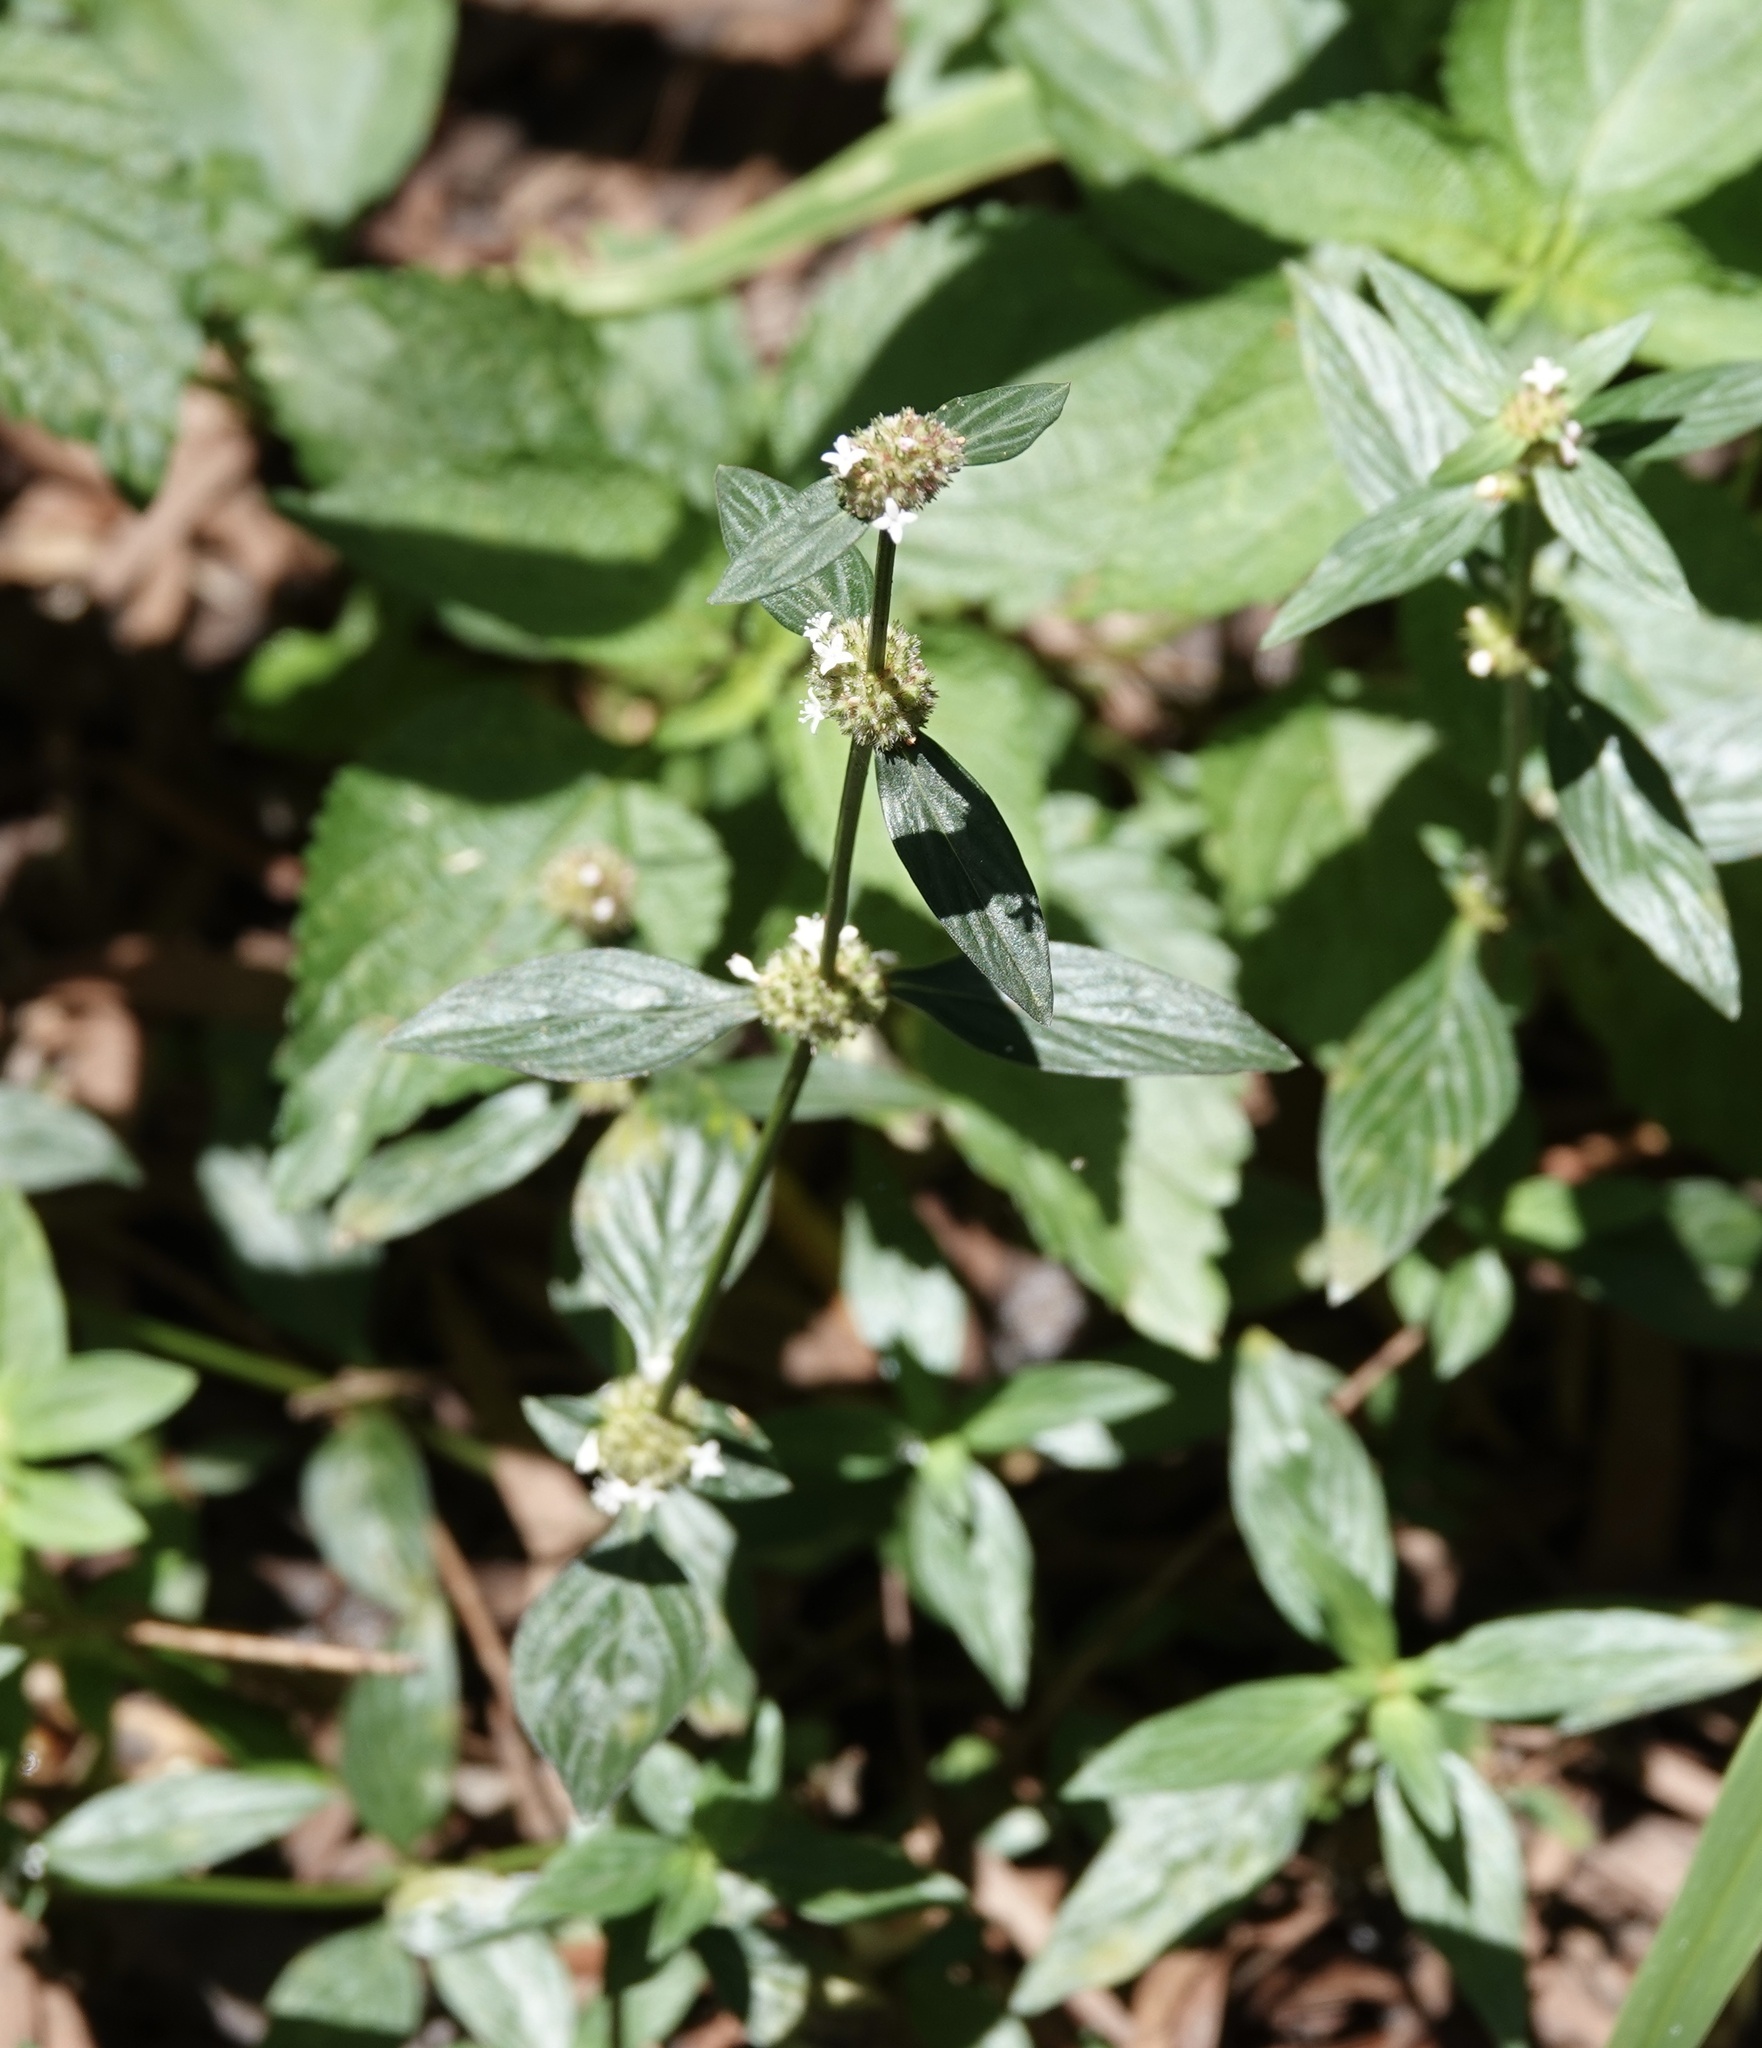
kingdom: Plantae
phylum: Tracheophyta
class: Magnoliopsida
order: Gentianales
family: Rubiaceae
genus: Spermacoce
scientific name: Spermacoce remota
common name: Woodland false buttonweed
